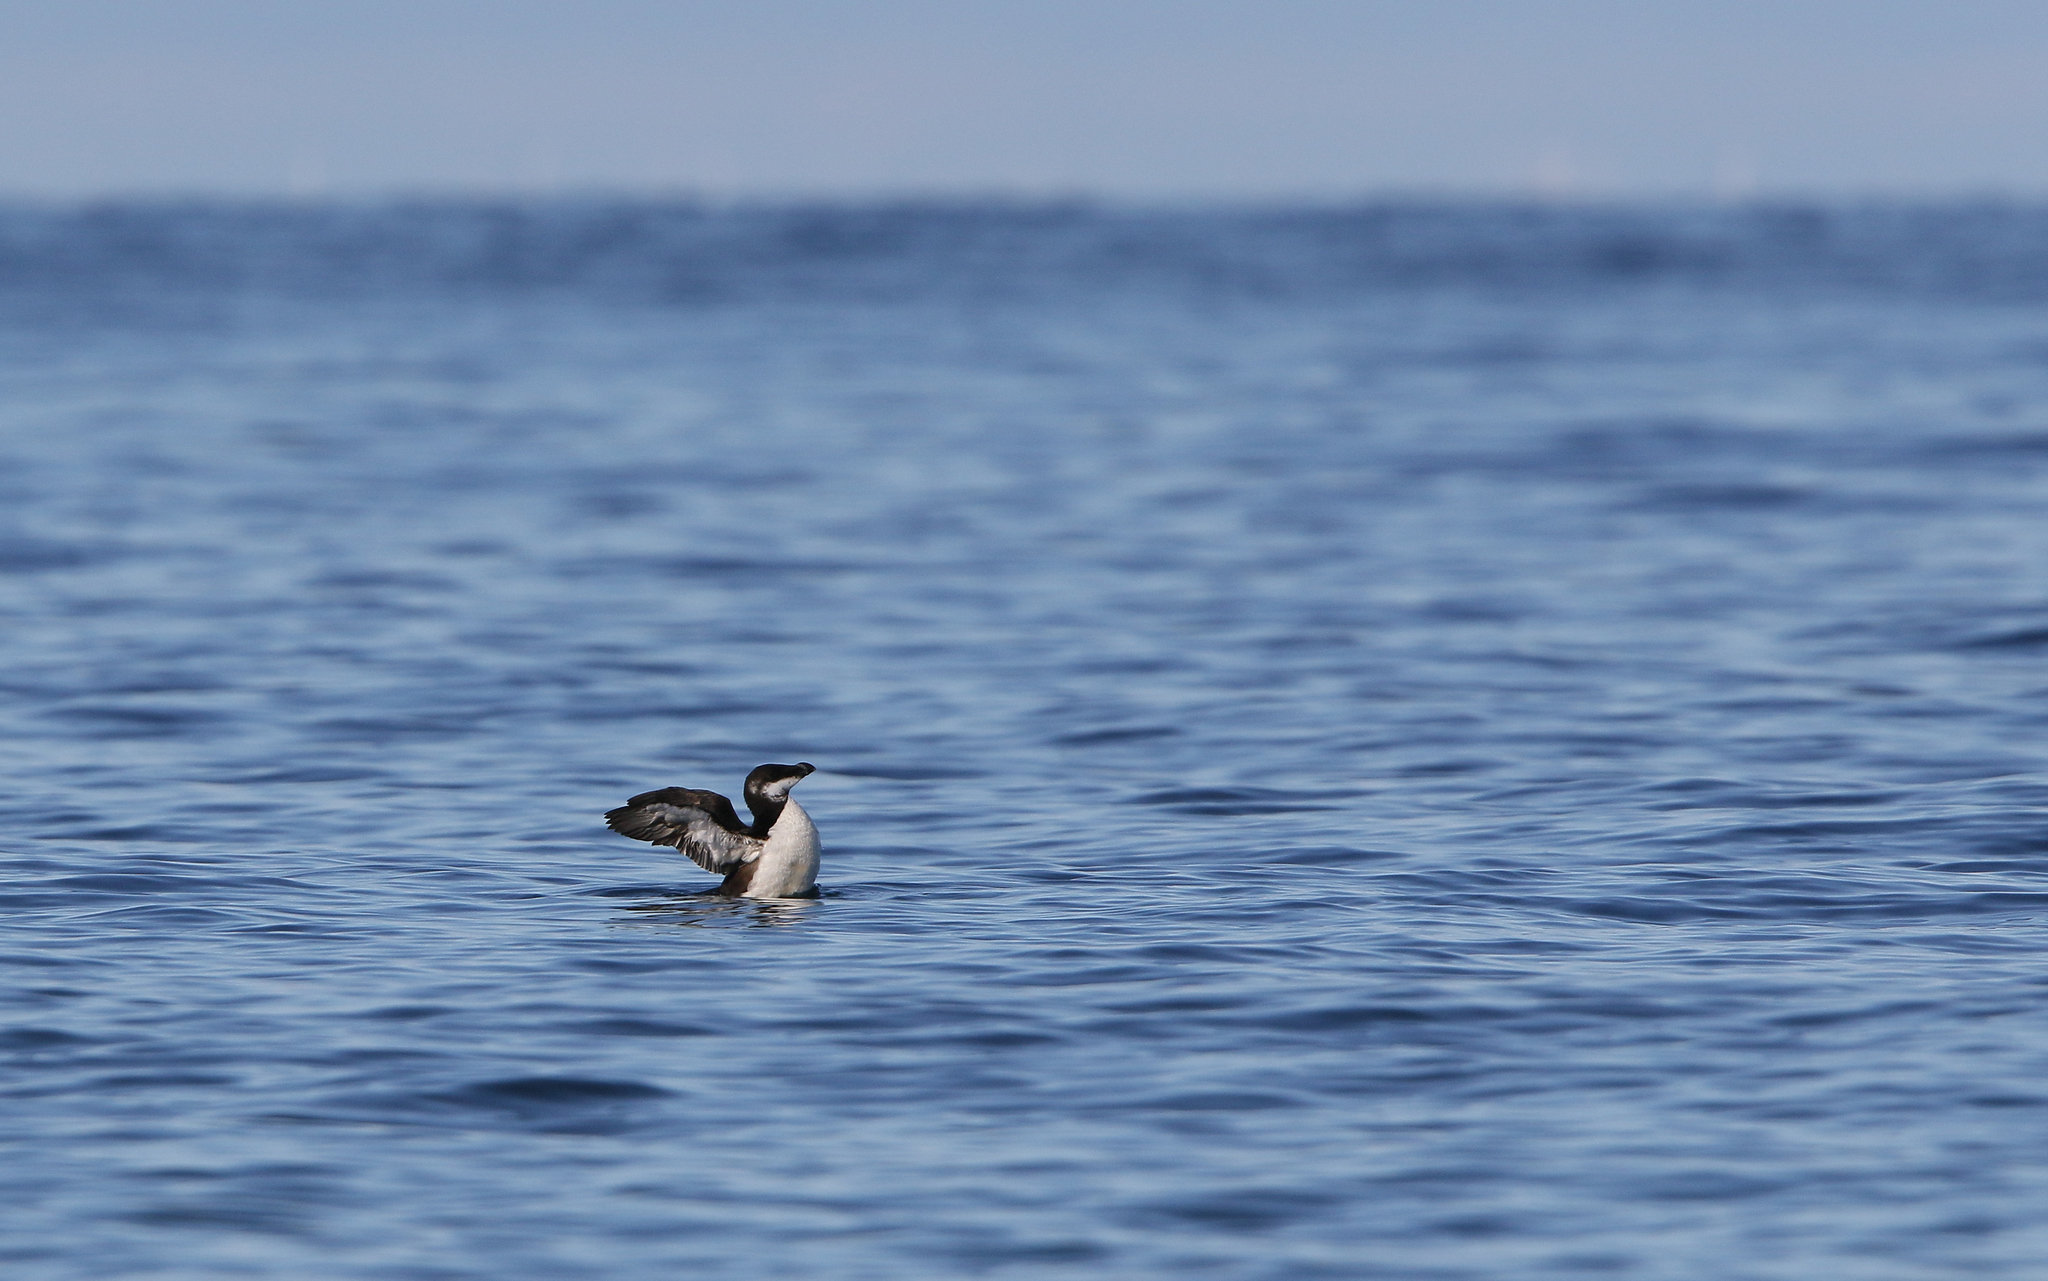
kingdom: Animalia
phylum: Chordata
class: Aves
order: Charadriiformes
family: Alcidae
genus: Alca
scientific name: Alca torda
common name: Razorbill
